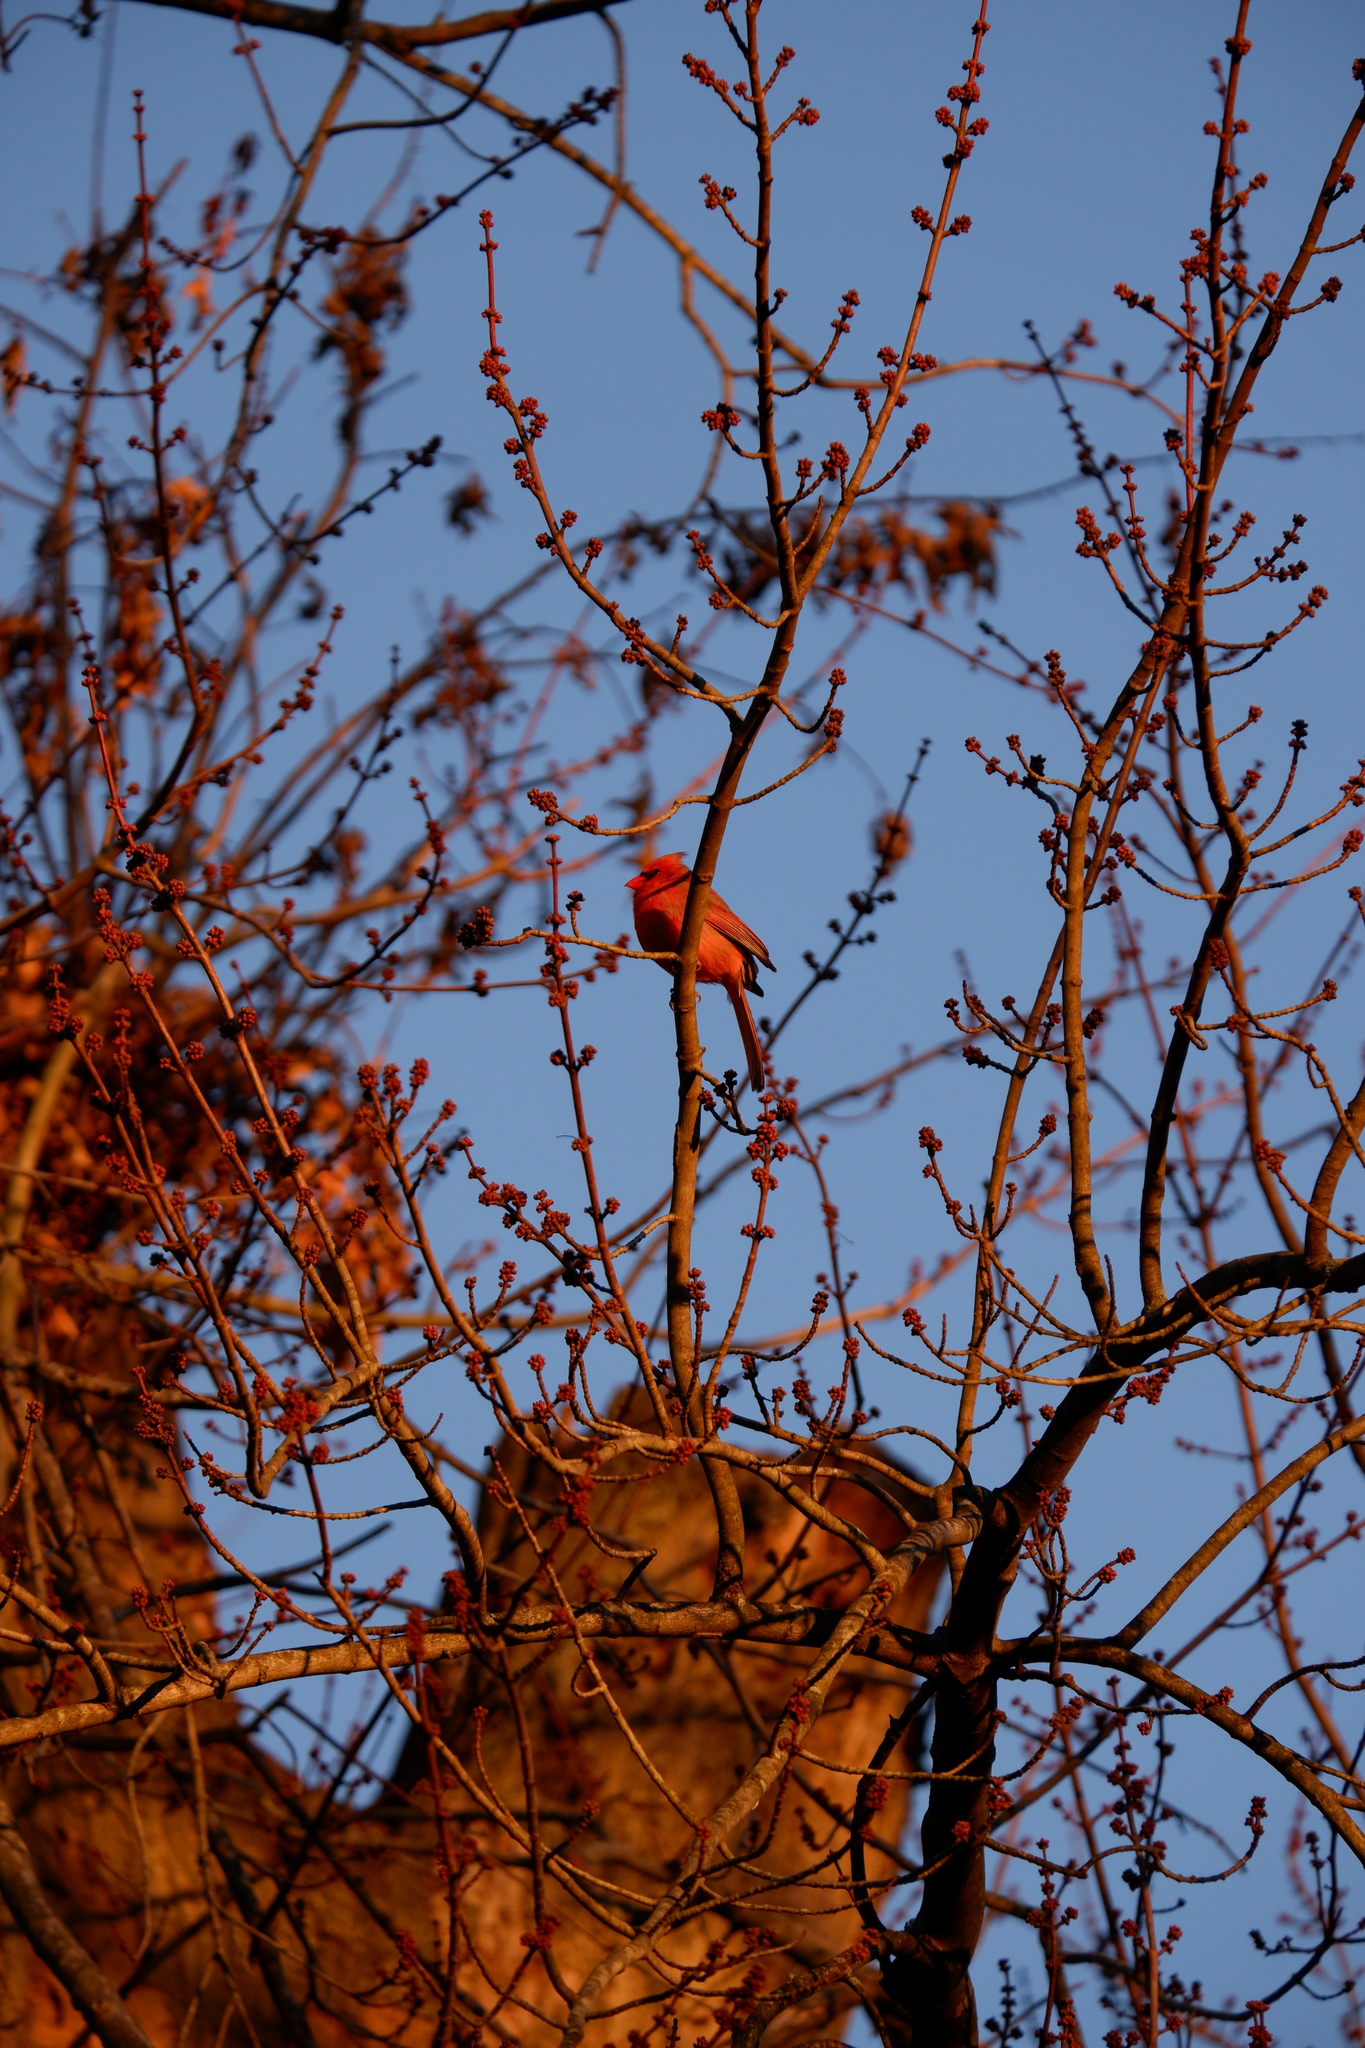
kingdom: Animalia
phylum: Chordata
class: Aves
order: Passeriformes
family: Cardinalidae
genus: Cardinalis
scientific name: Cardinalis cardinalis
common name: Northern cardinal
